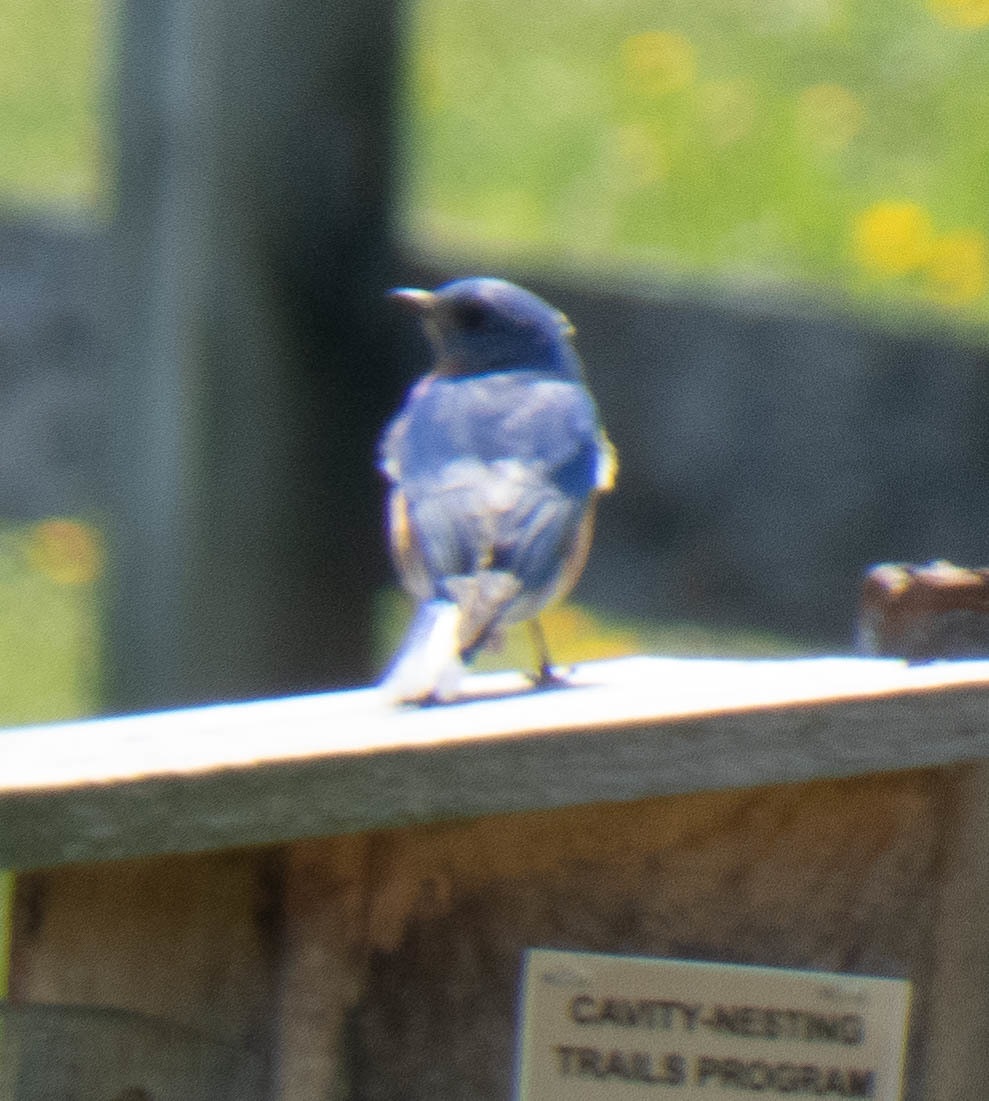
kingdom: Animalia
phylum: Chordata
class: Aves
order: Passeriformes
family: Turdidae
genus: Sialia
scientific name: Sialia sialis
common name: Eastern bluebird
